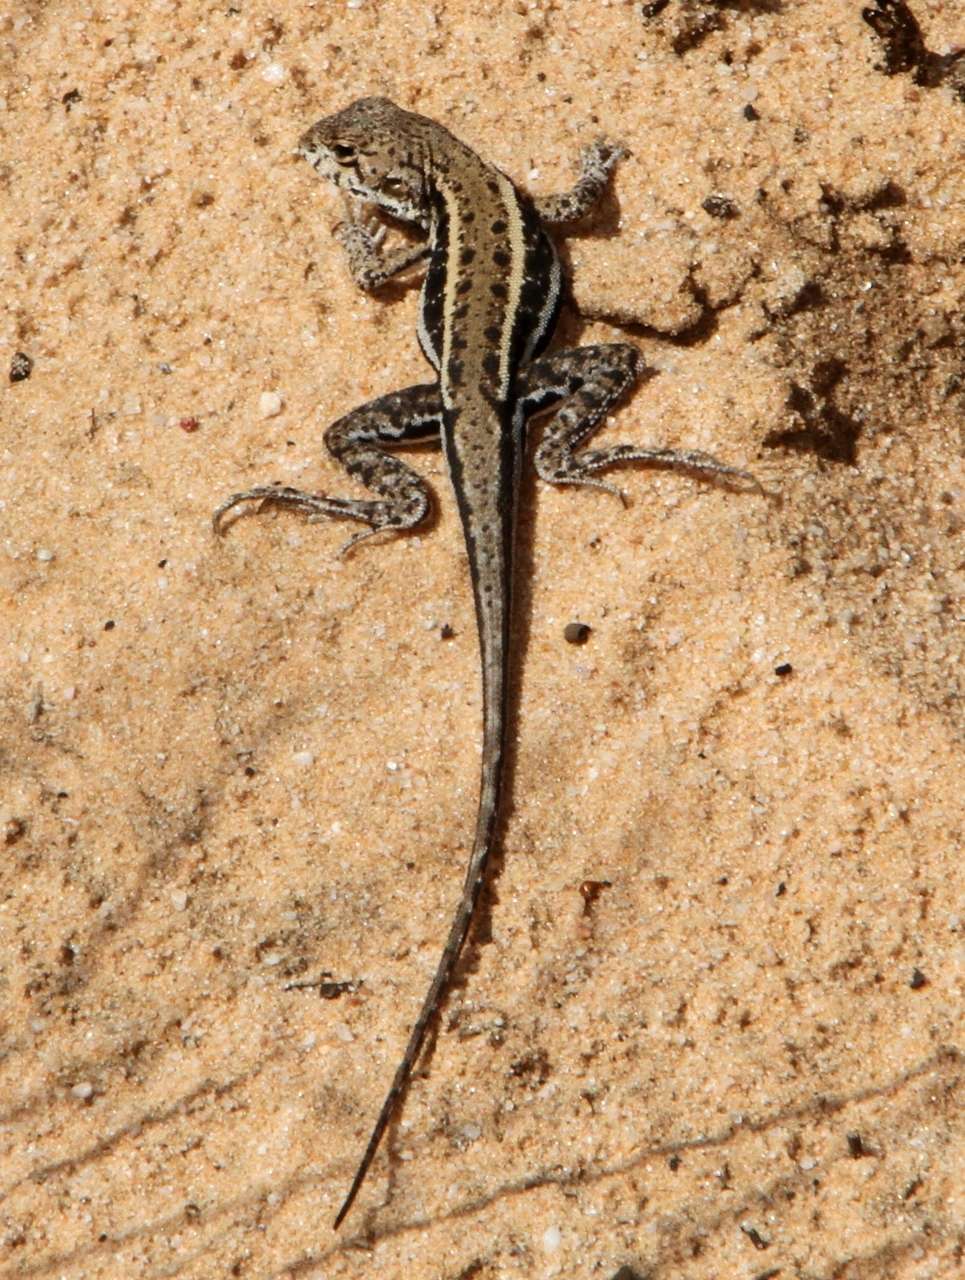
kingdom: Animalia
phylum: Chordata
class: Squamata
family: Agamidae
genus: Ctenophorus
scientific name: Ctenophorus
